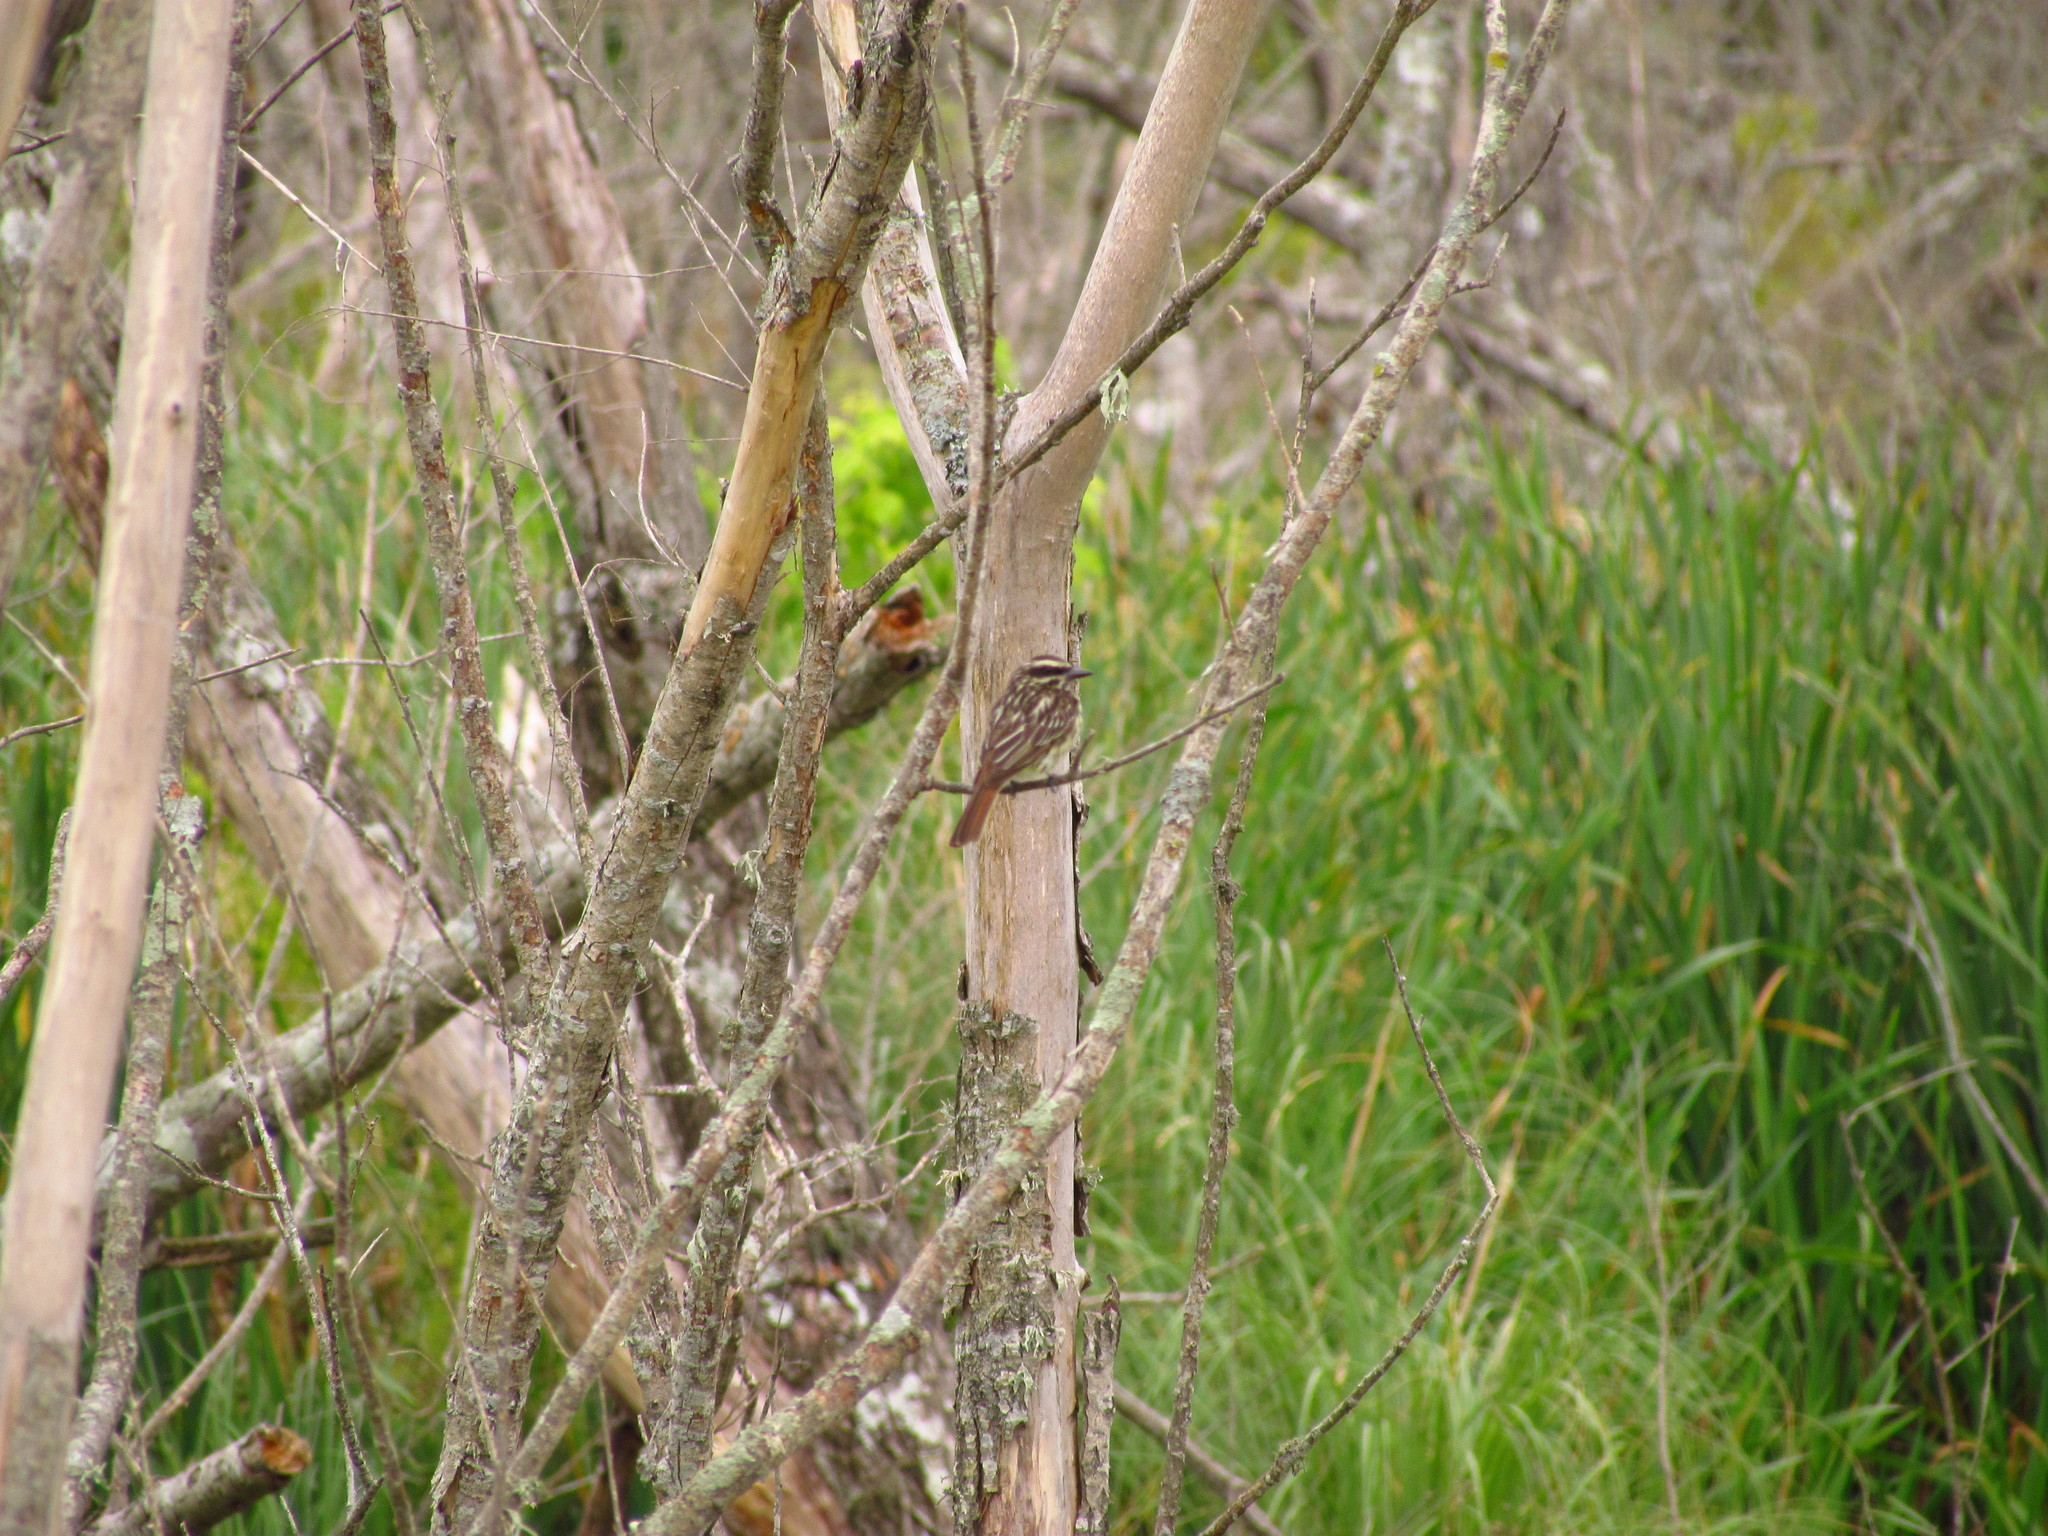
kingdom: Animalia
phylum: Chordata
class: Aves
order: Passeriformes
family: Tyrannidae
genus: Myiodynastes
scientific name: Myiodynastes maculatus
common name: Streaked flycatcher
